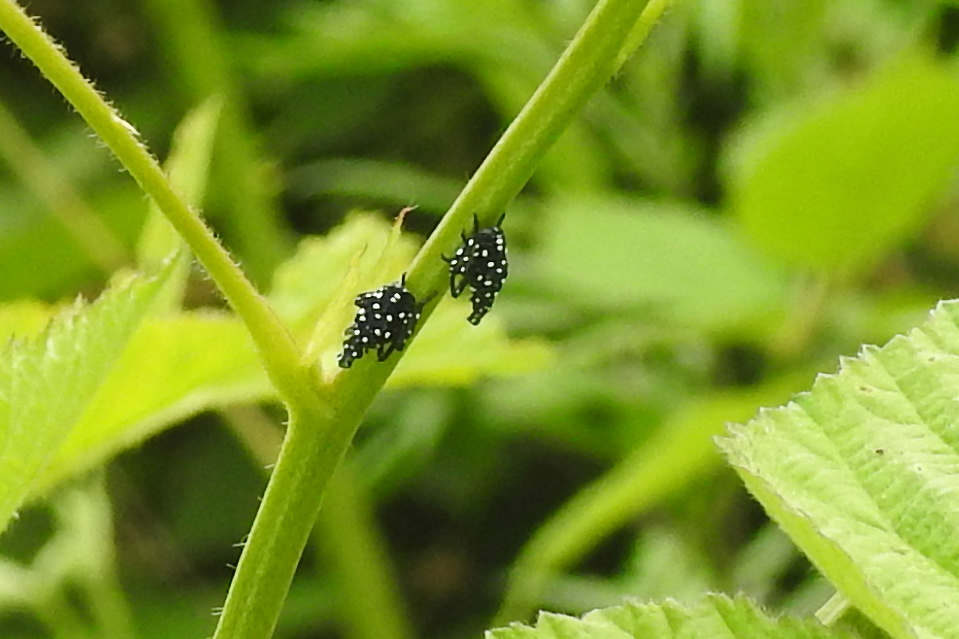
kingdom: Animalia
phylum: Arthropoda
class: Insecta
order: Hemiptera
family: Fulgoridae
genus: Lycorma
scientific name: Lycorma delicatula
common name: Spotted lanternfly
